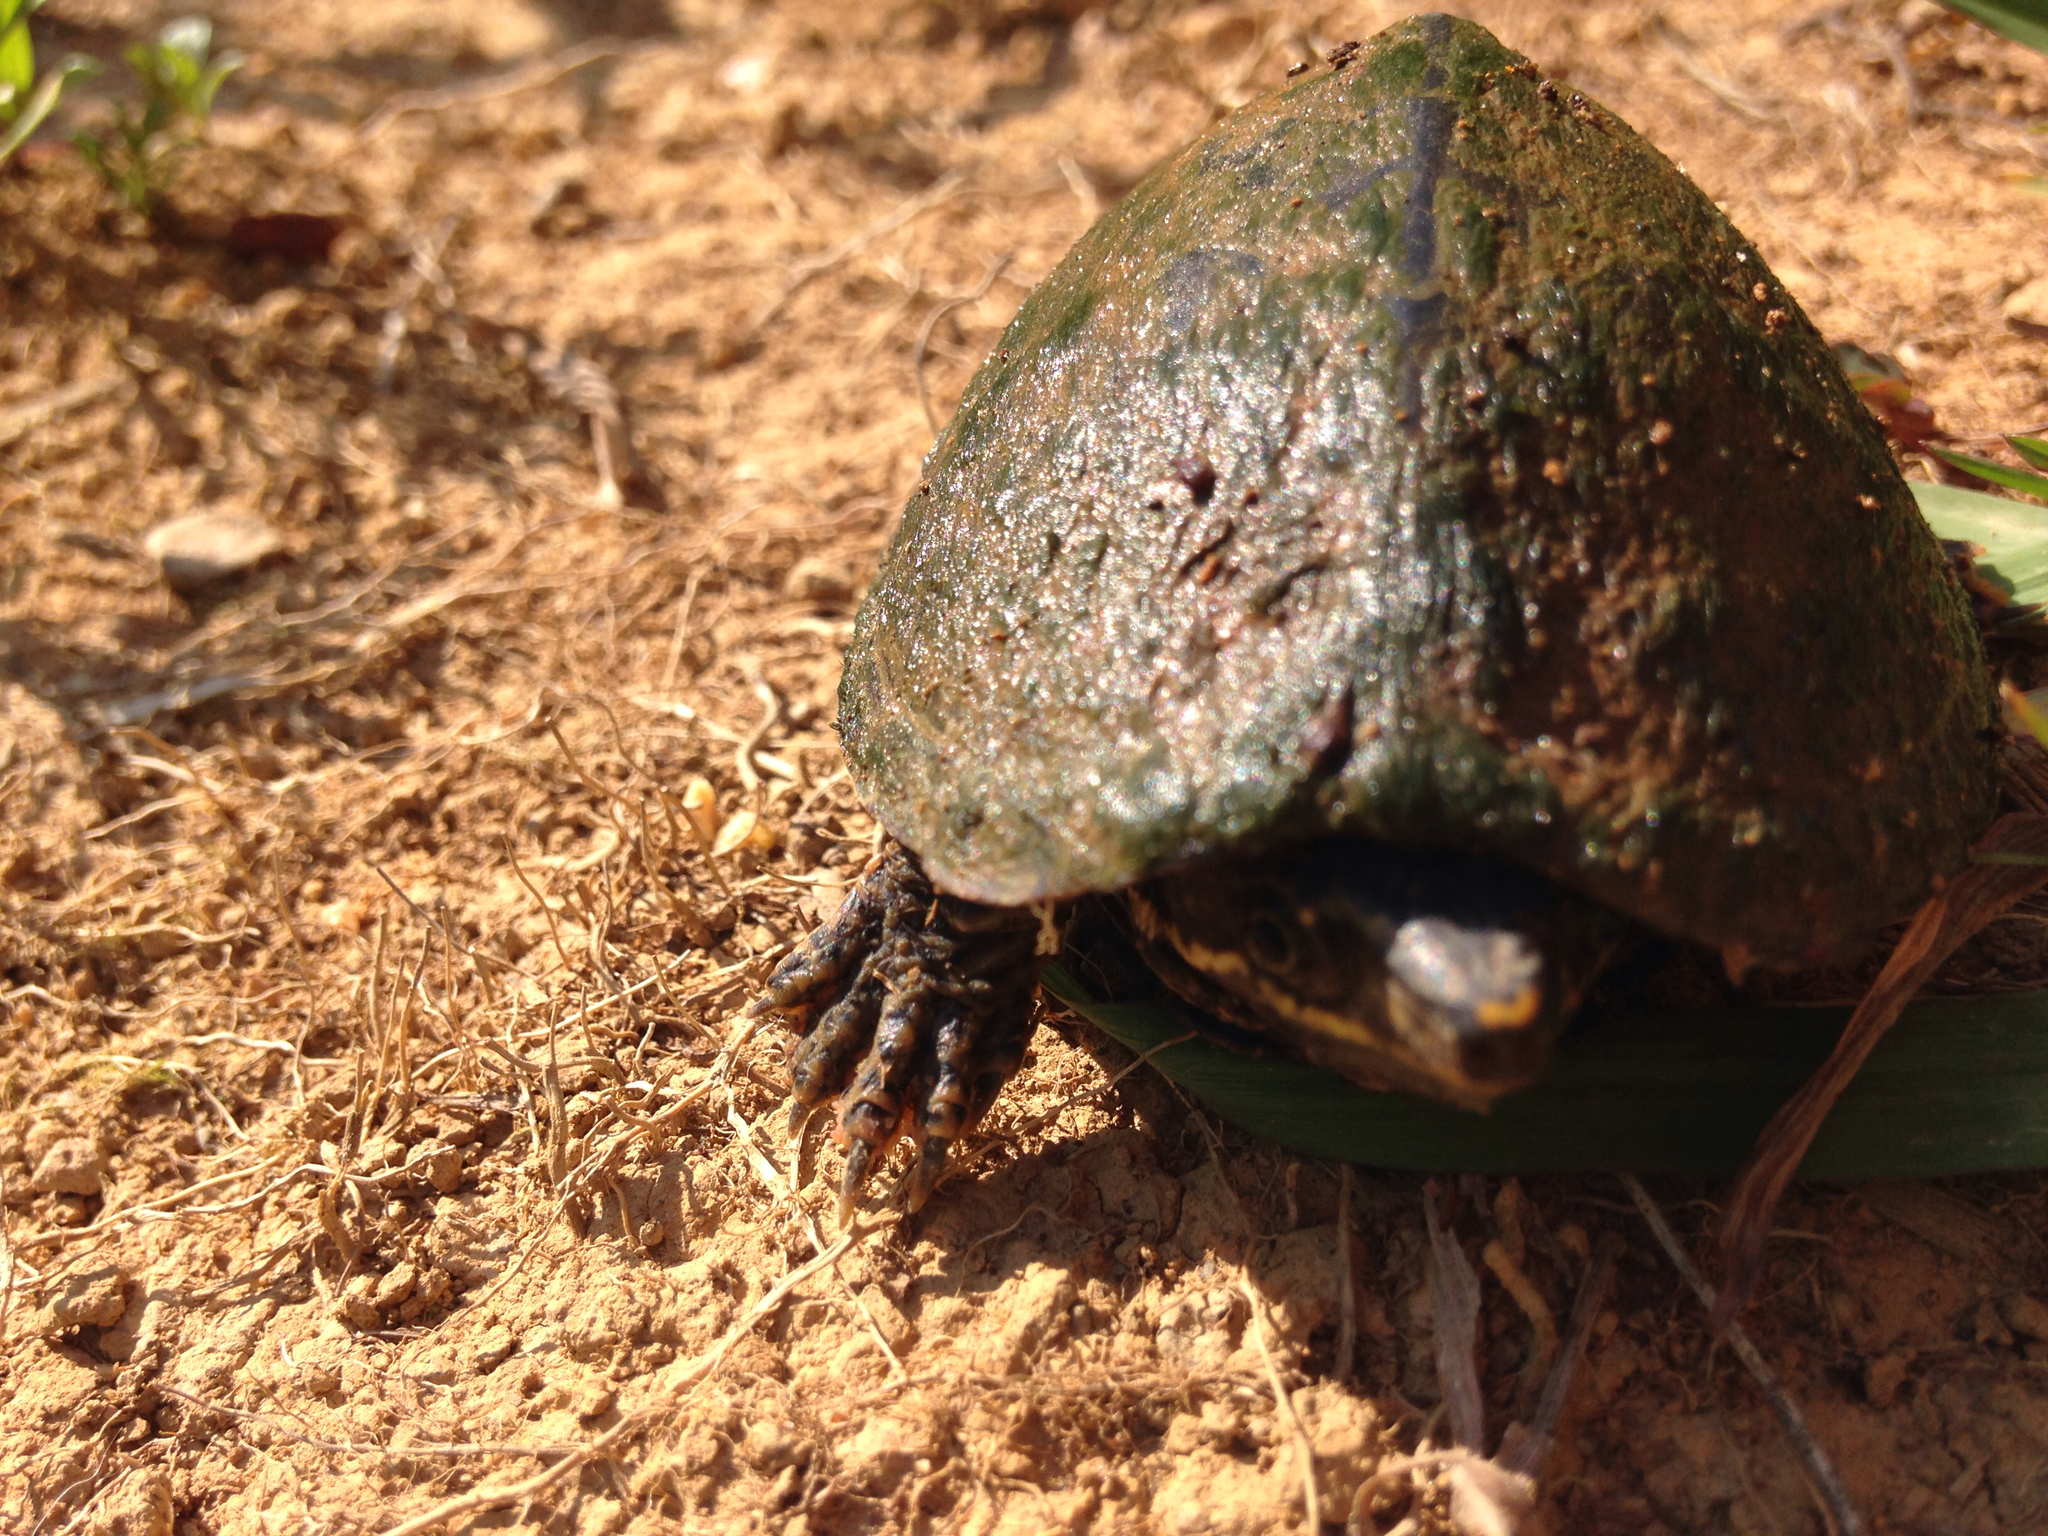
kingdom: Animalia
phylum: Chordata
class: Testudines
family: Kinosternidae
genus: Sternotherus
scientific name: Sternotherus odoratus
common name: Common musk turtle
